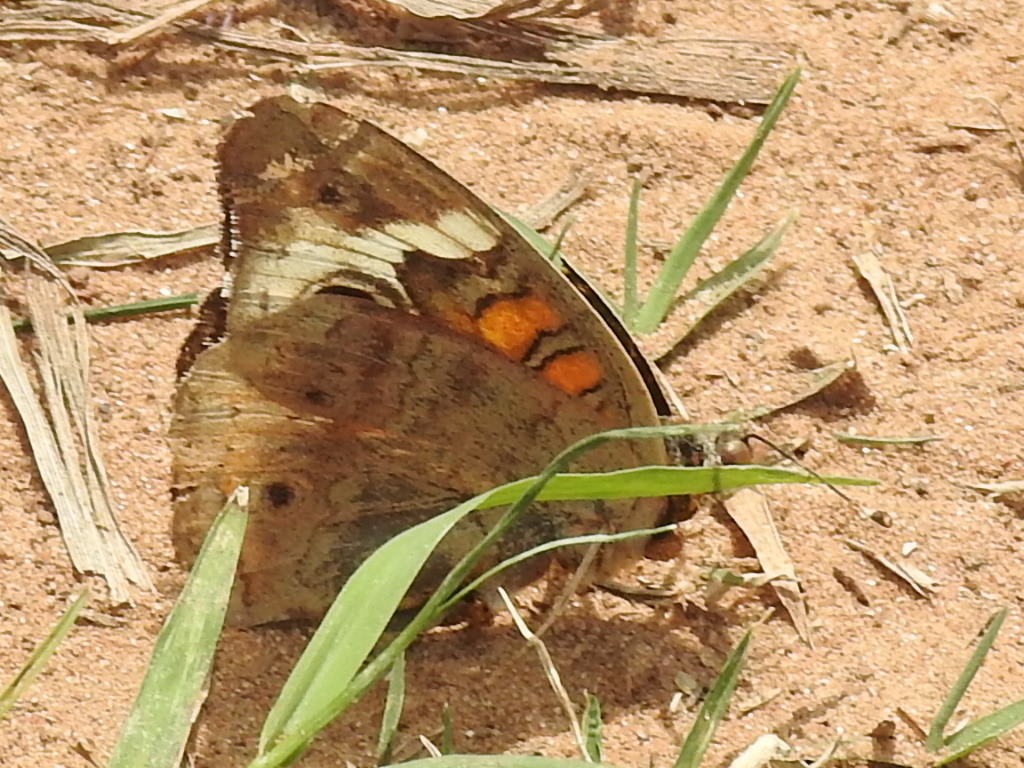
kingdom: Animalia
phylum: Arthropoda
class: Insecta
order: Lepidoptera
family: Nymphalidae
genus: Junonia
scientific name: Junonia coenia
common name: Common buckeye
